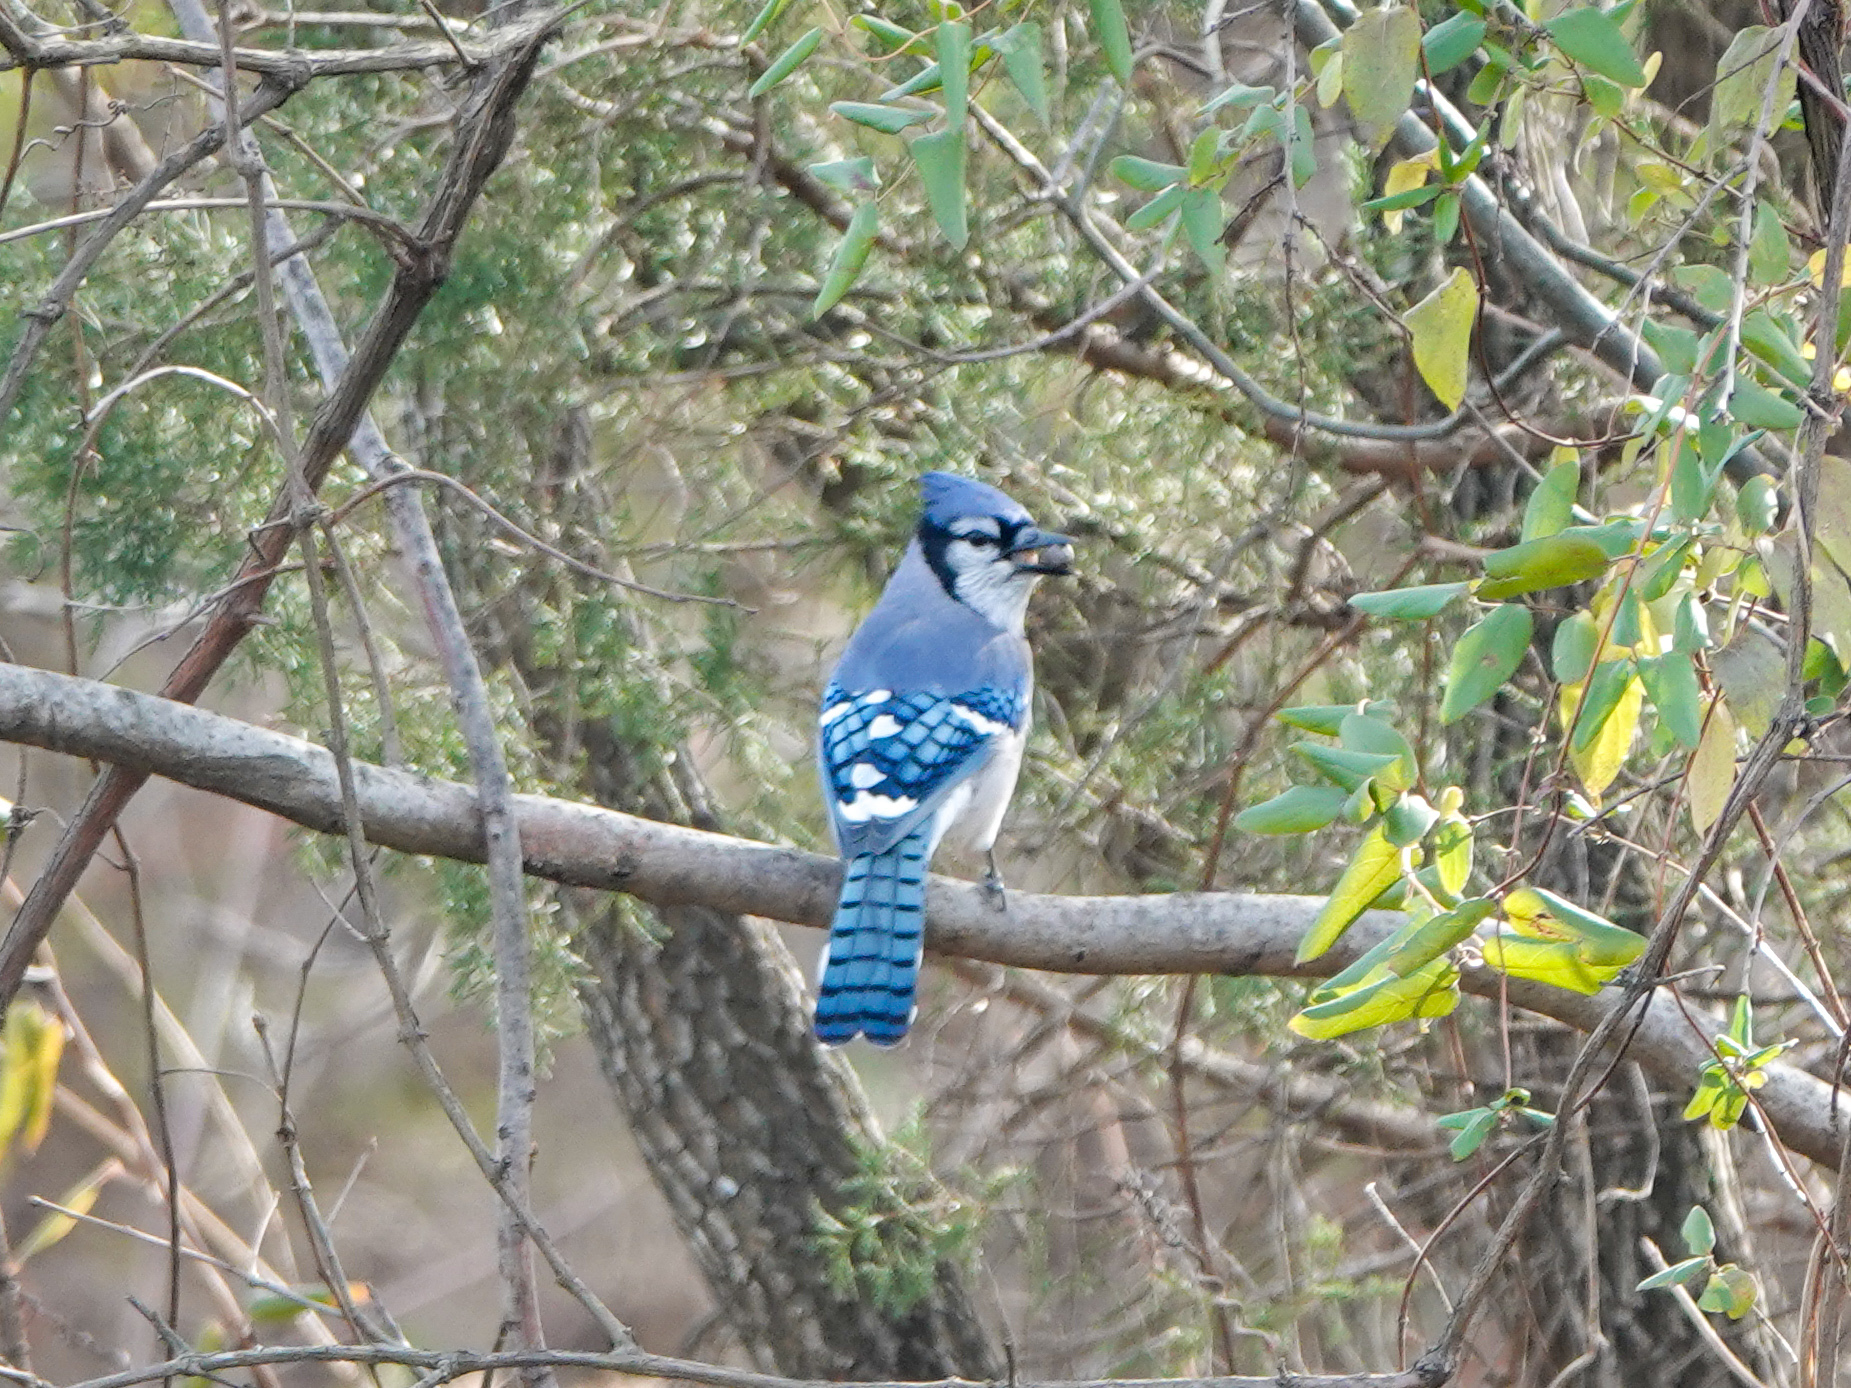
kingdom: Animalia
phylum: Chordata
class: Aves
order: Passeriformes
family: Corvidae
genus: Cyanocitta
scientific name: Cyanocitta cristata
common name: Blue jay
